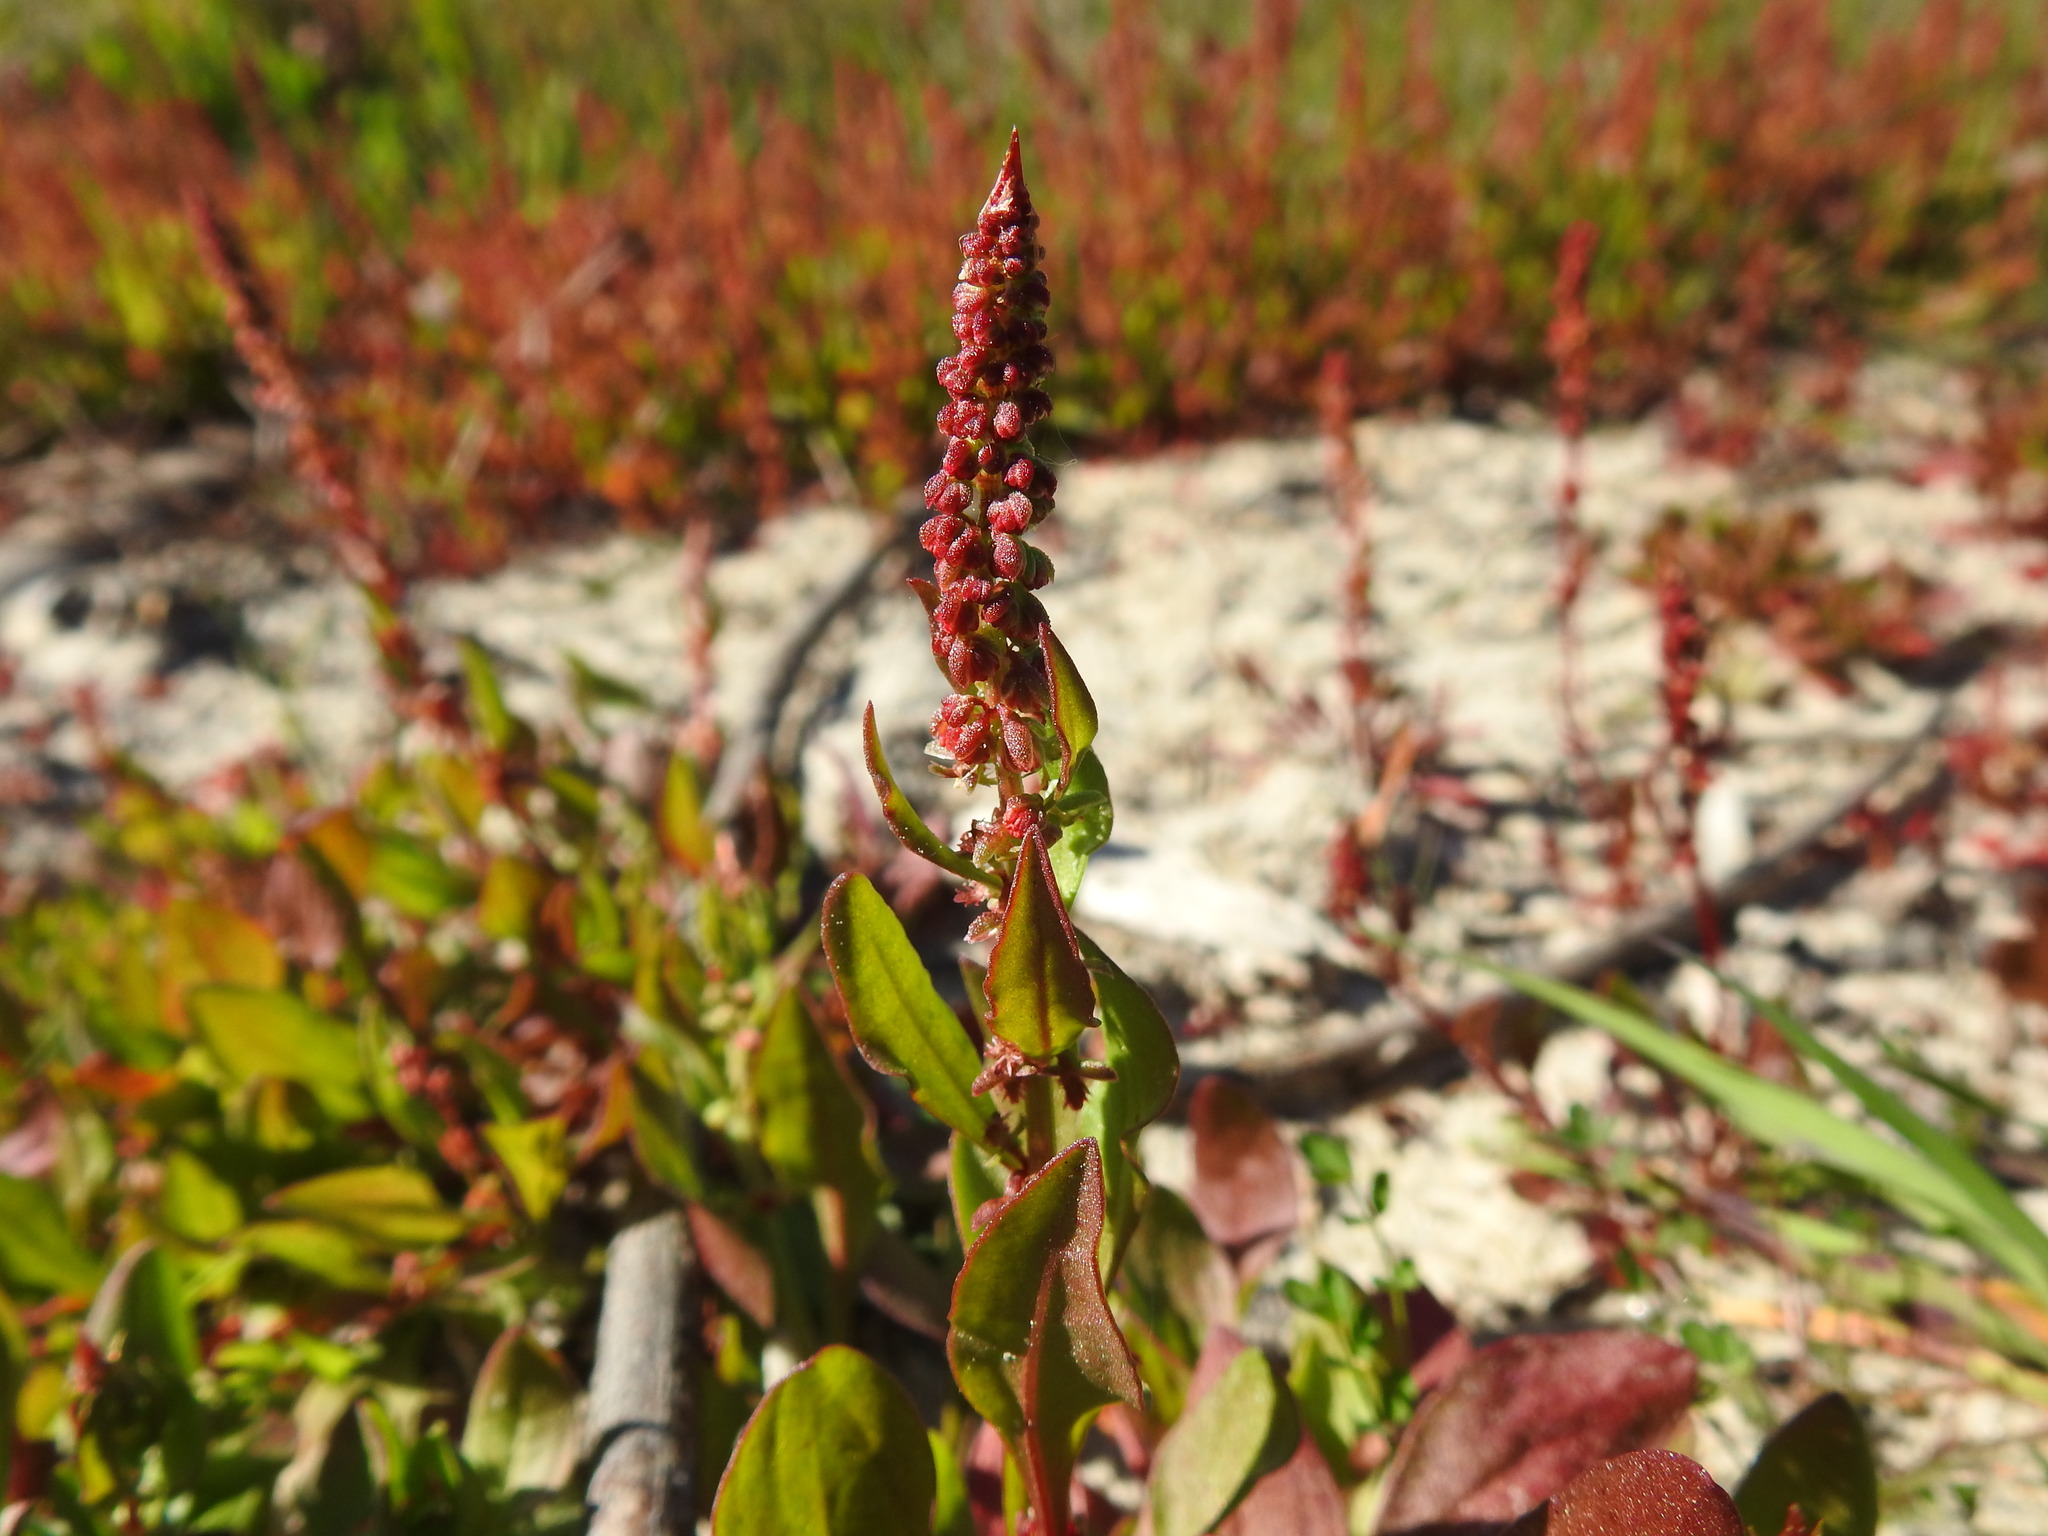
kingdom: Plantae
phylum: Tracheophyta
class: Magnoliopsida
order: Caryophyllales
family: Polygonaceae
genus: Rumex
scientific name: Rumex bucephalophorus
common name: Red dock
